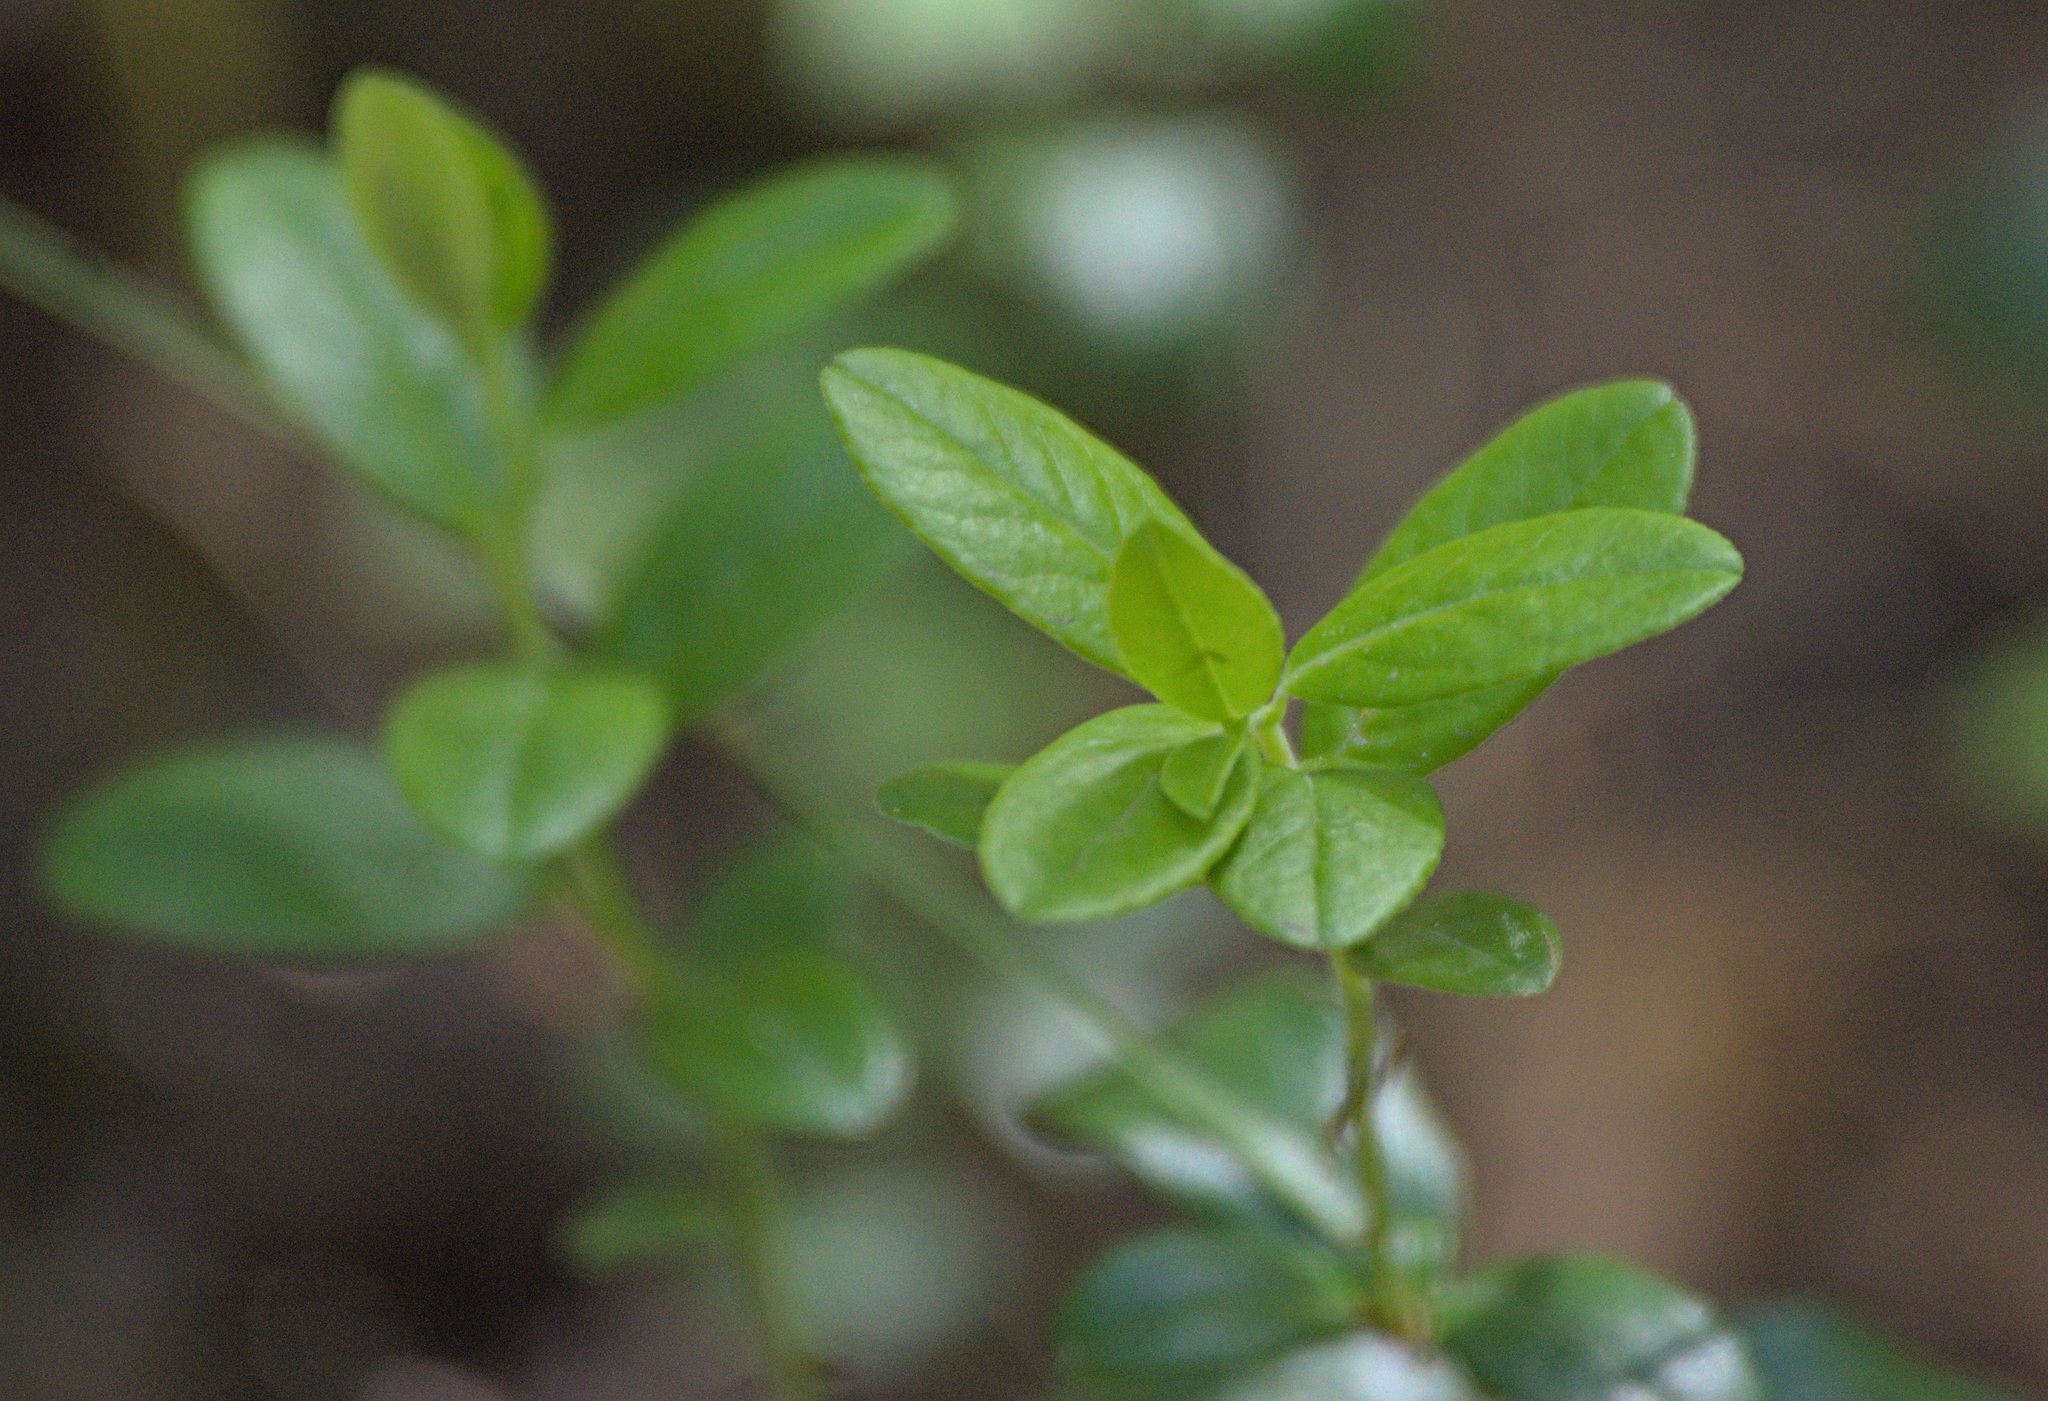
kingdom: Plantae
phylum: Tracheophyta
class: Magnoliopsida
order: Ericales
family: Ericaceae
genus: Vaccinium
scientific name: Vaccinium vitis-idaea
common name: Cowberry
